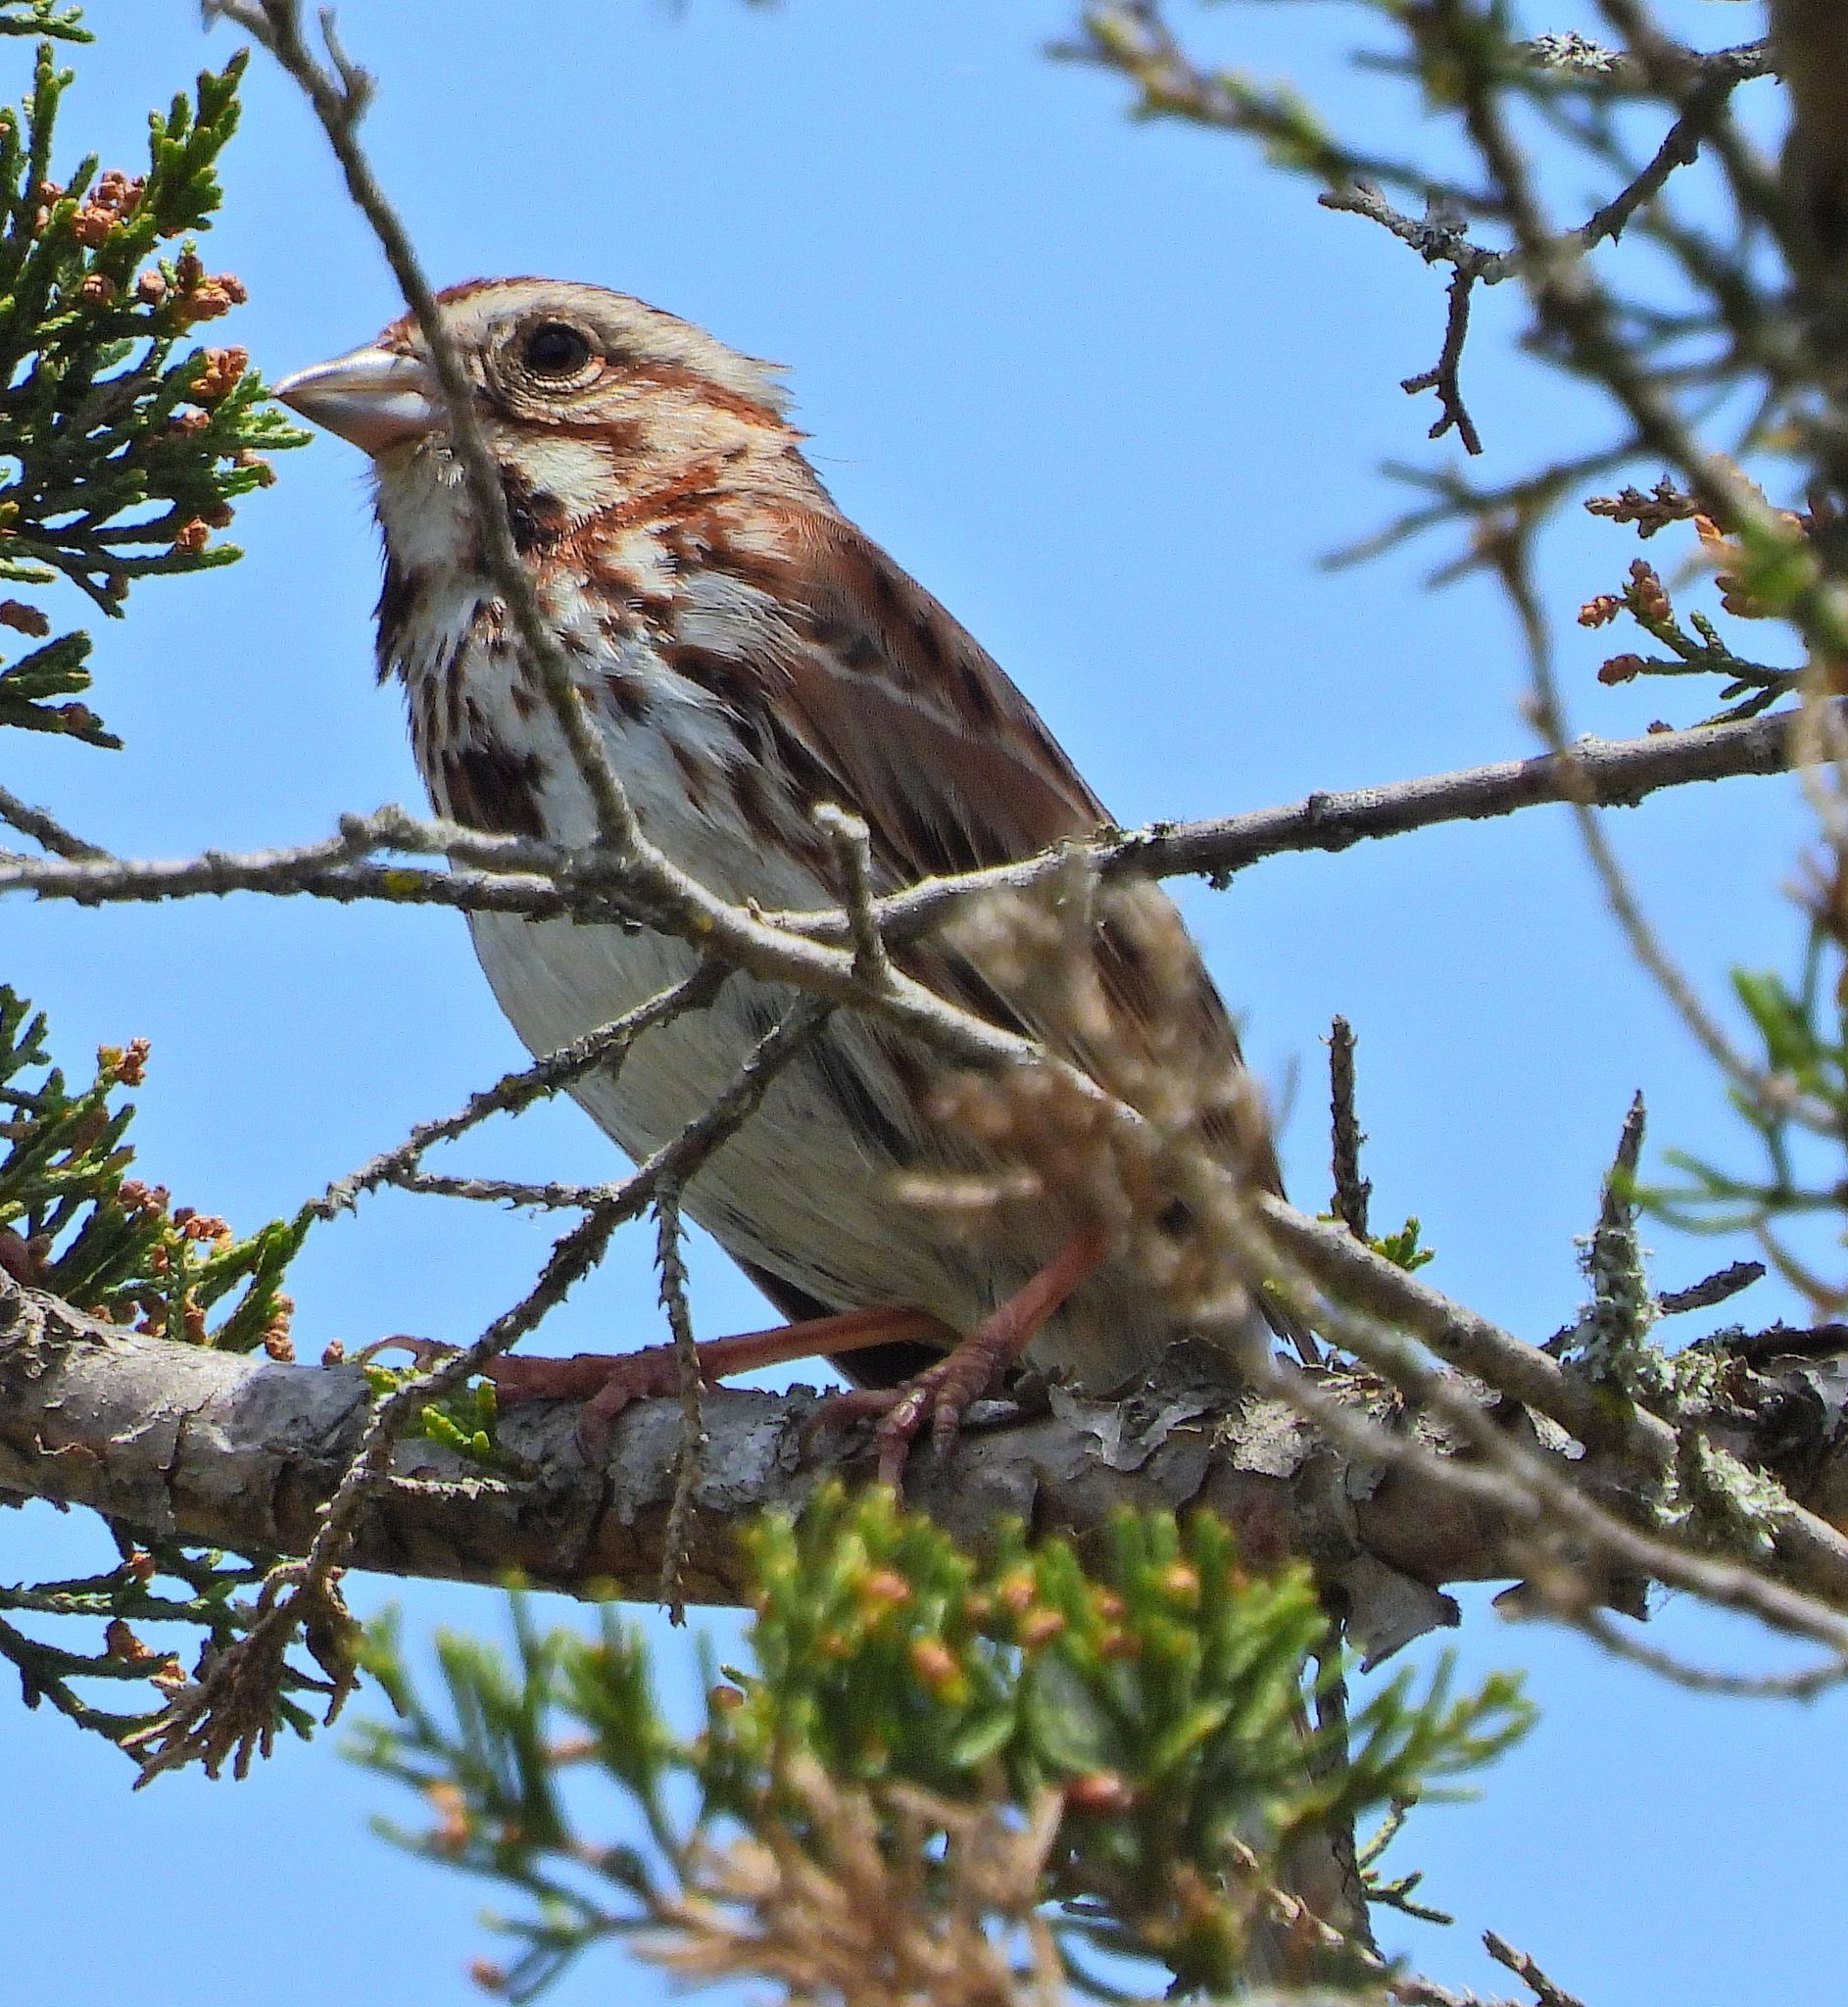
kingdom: Animalia
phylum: Chordata
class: Aves
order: Passeriformes
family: Passerellidae
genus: Melospiza
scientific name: Melospiza melodia
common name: Song sparrow
